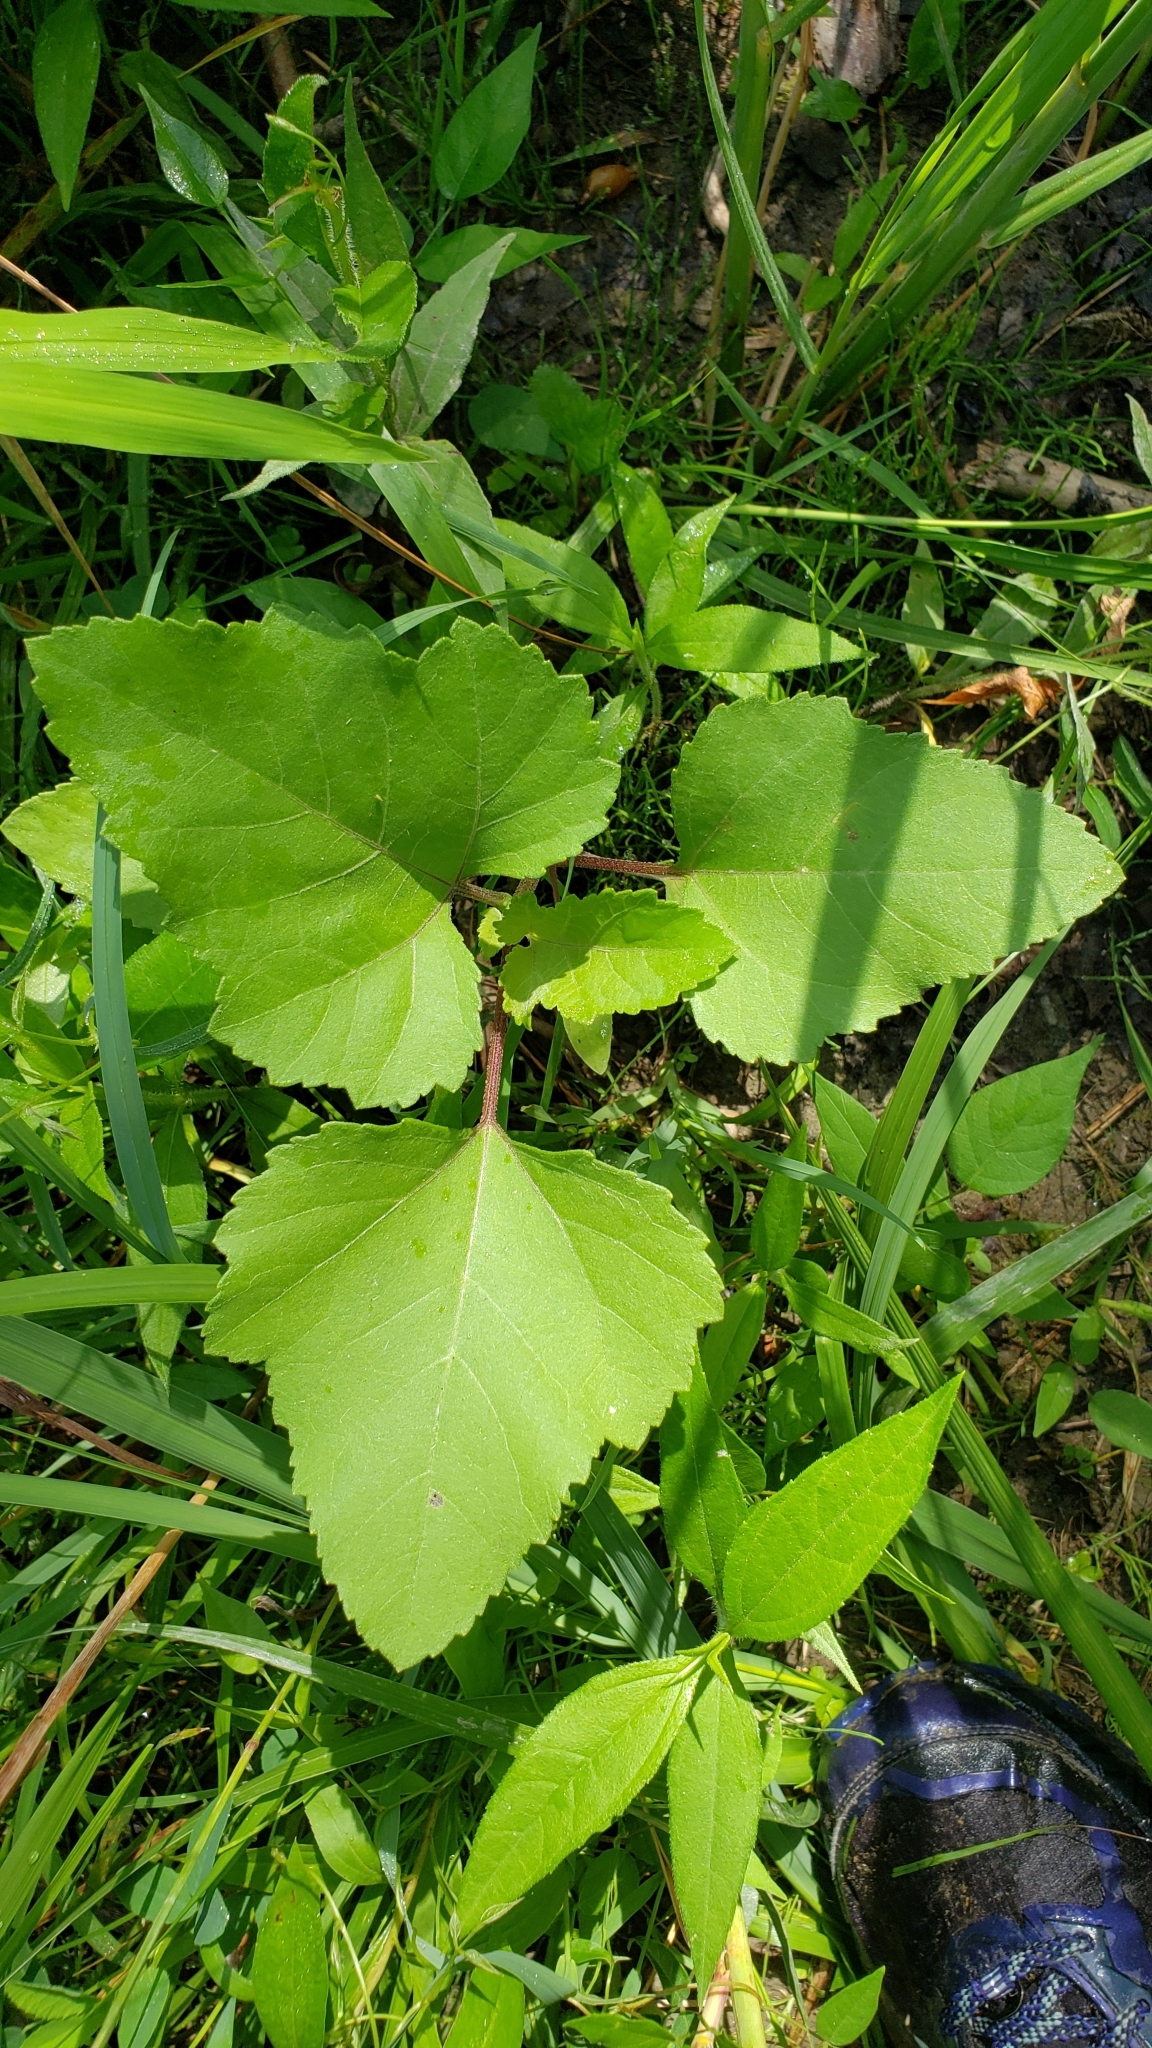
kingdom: Plantae
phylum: Tracheophyta
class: Magnoliopsida
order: Asterales
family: Asteraceae
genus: Xanthium
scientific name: Xanthium strumarium
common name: Rough cocklebur
